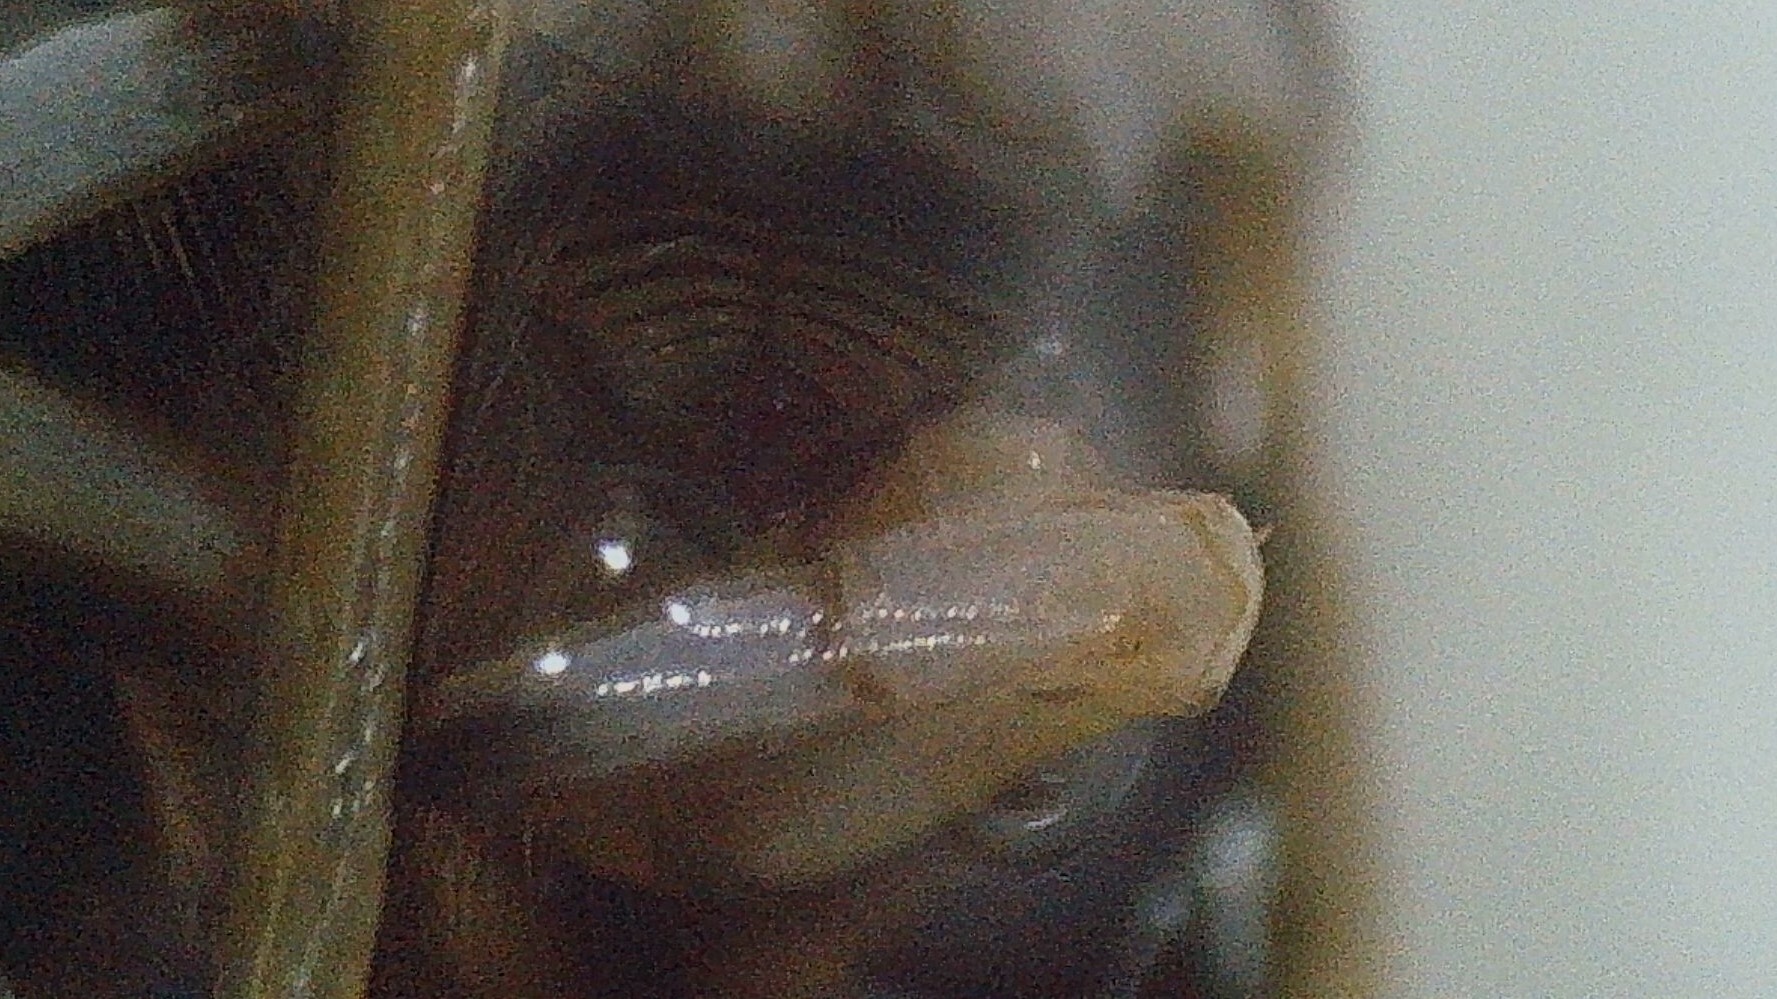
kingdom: Animalia
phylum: Arthropoda
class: Insecta
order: Hemiptera
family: Corixidae
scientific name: Corixidae
